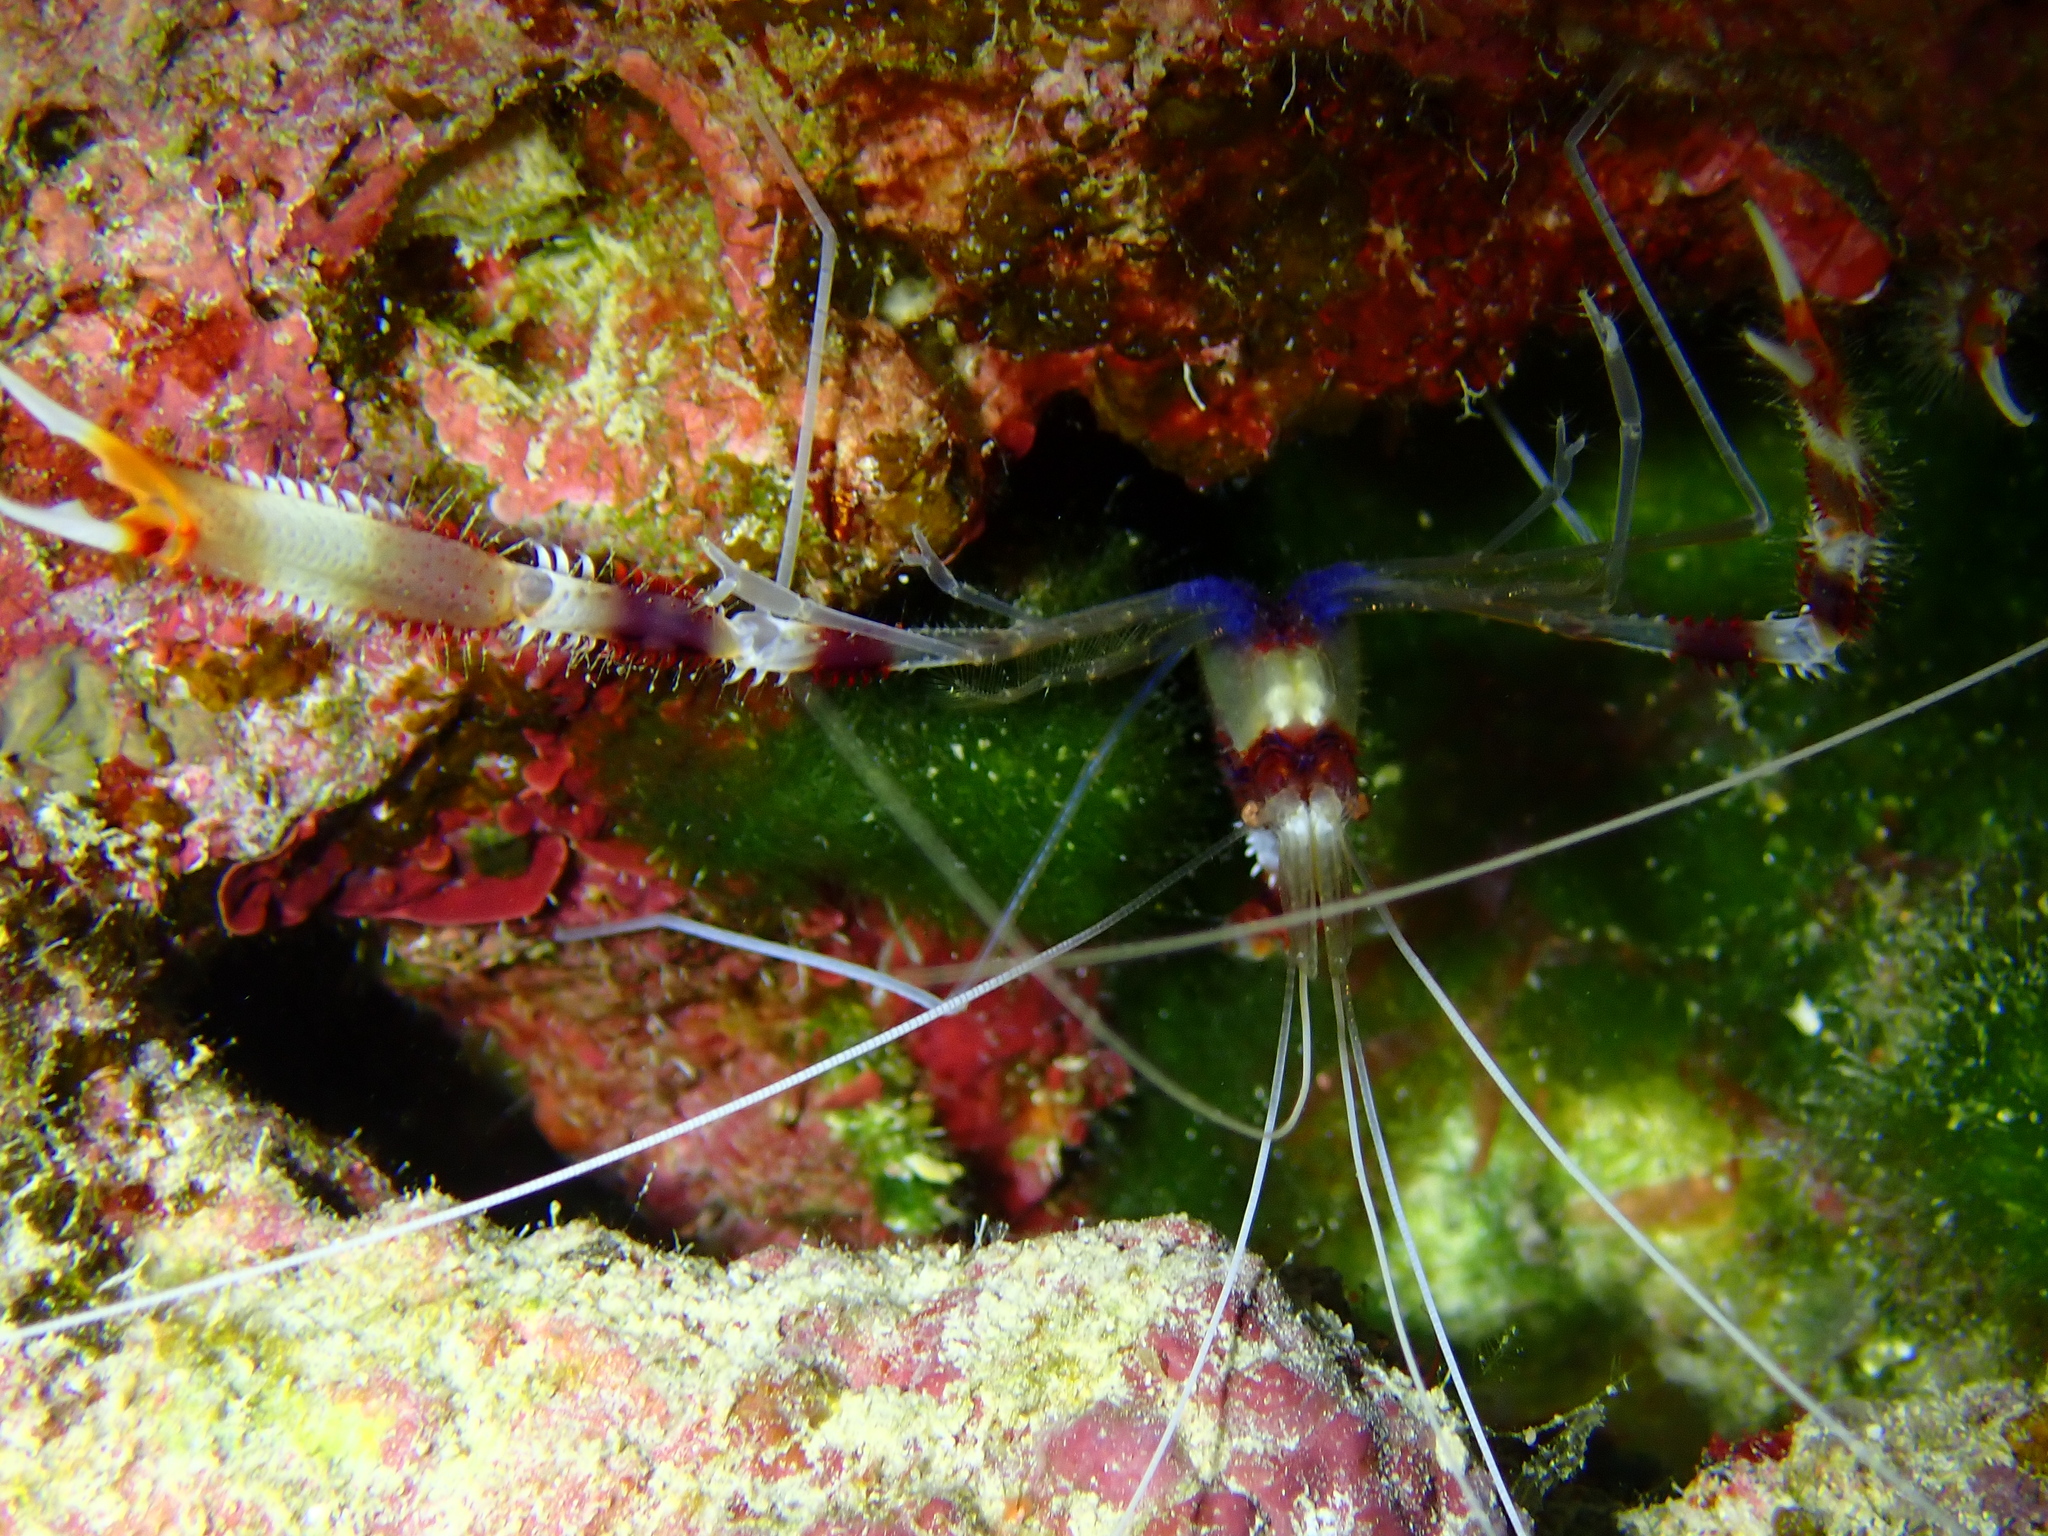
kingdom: Animalia
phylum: Arthropoda
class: Malacostraca
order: Decapoda
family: Stenopodidae
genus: Stenopus
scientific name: Stenopus hispidus
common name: Banded coral shrimp
